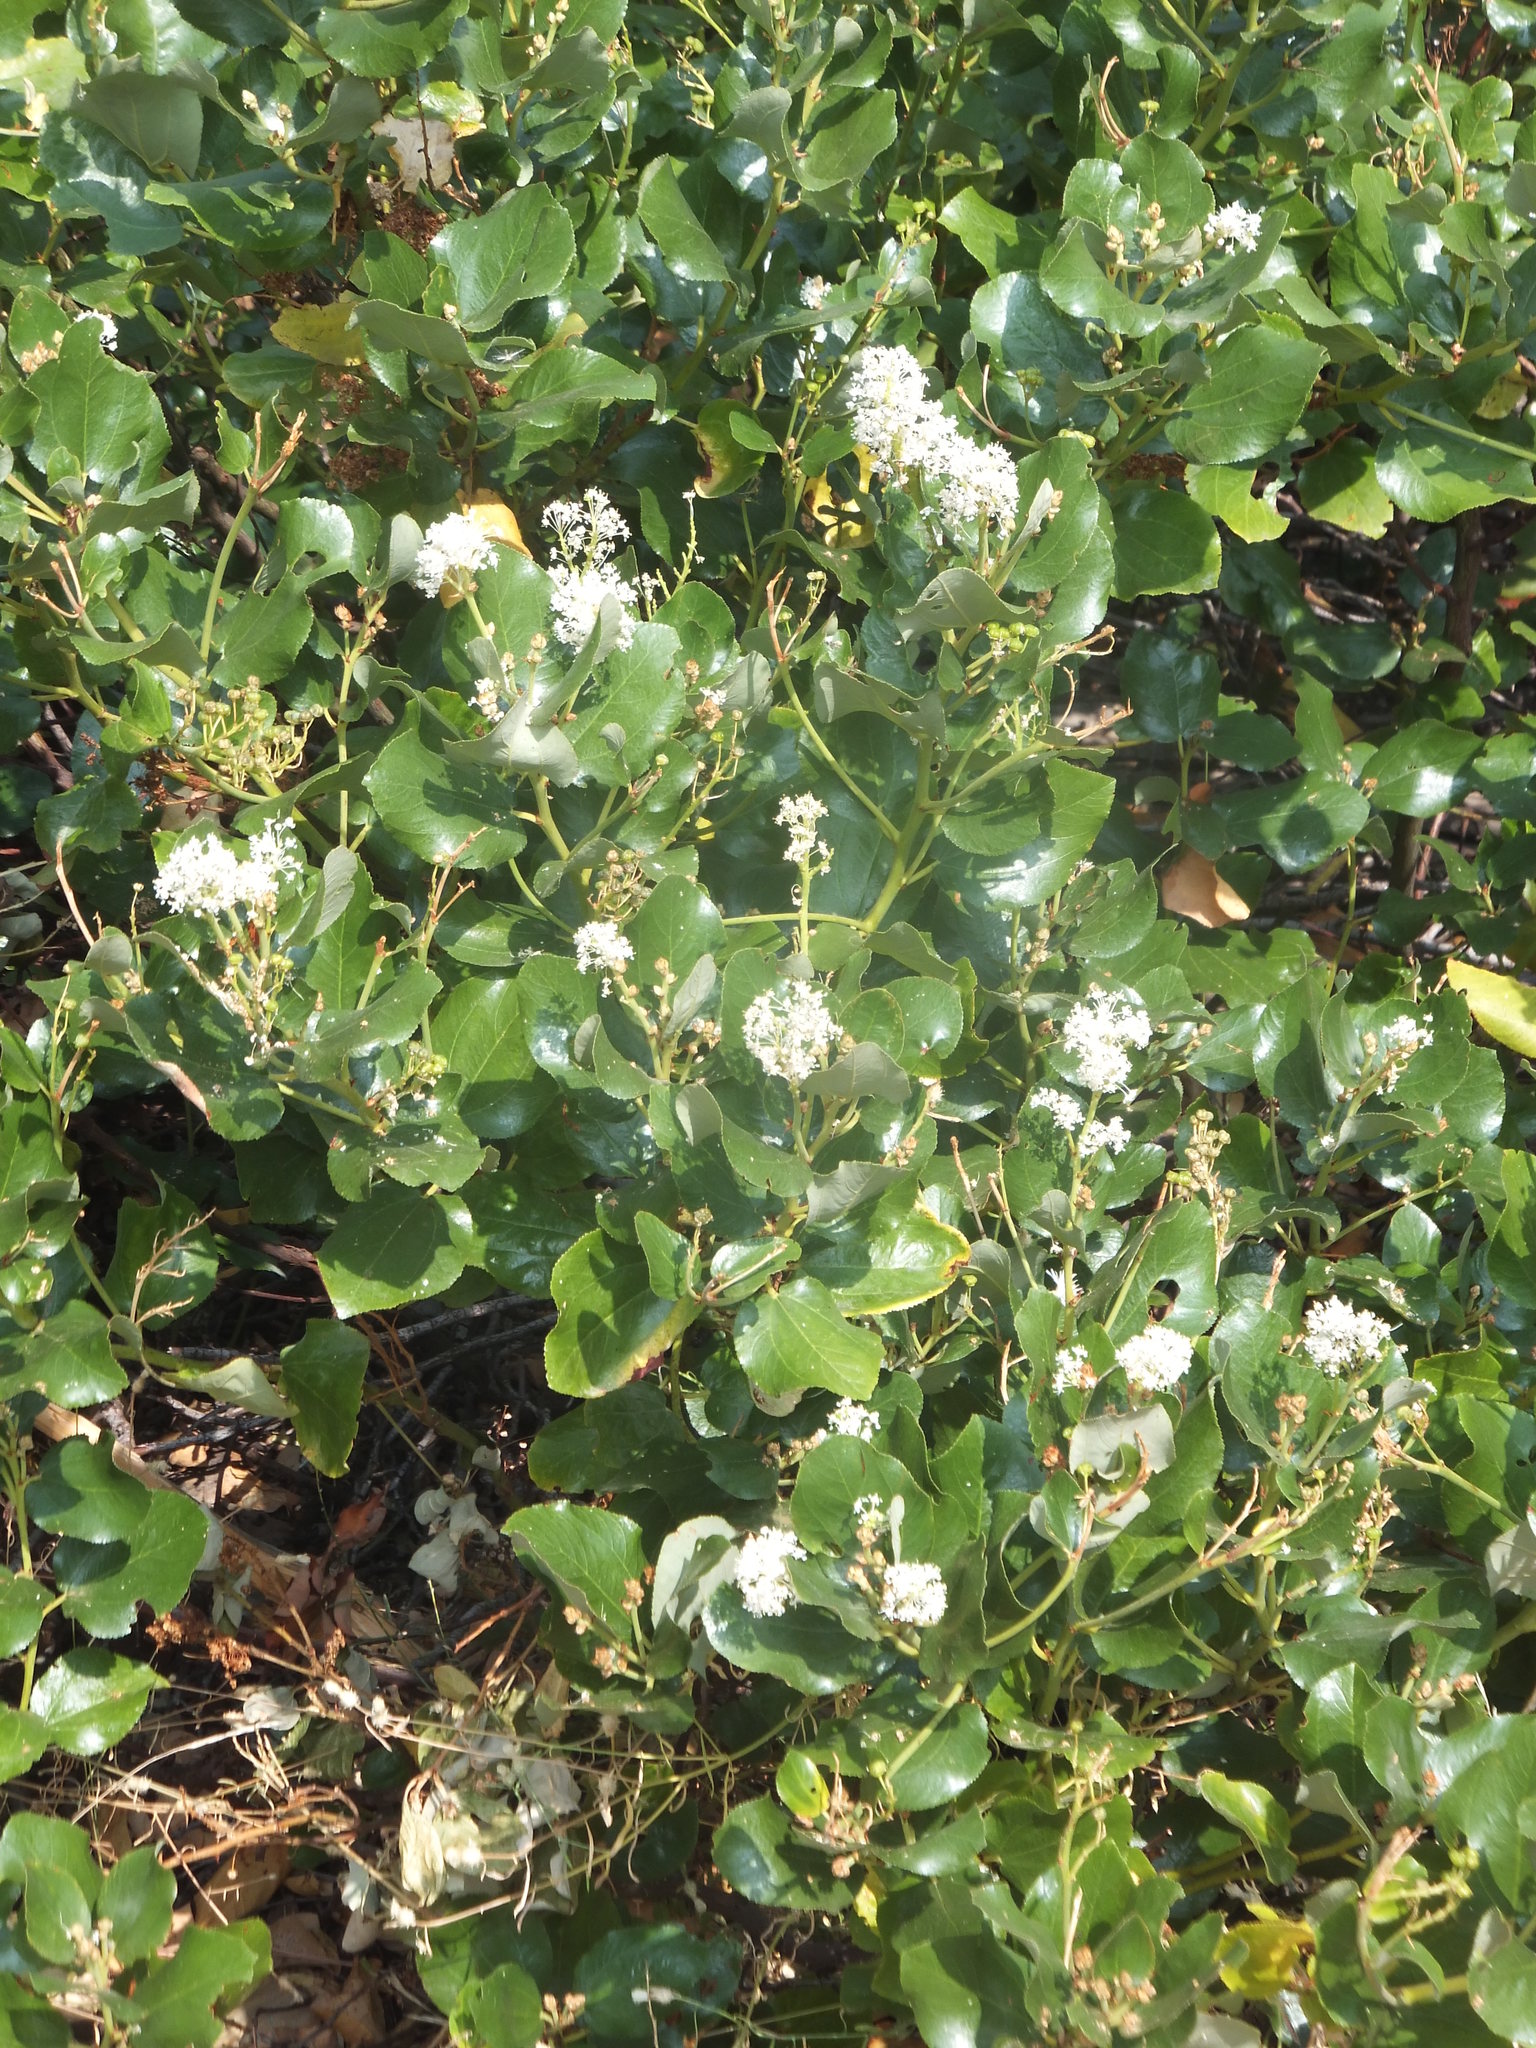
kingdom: Plantae
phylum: Tracheophyta
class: Magnoliopsida
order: Rosales
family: Rhamnaceae
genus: Ceanothus
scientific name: Ceanothus velutinus
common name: Snowbrush
